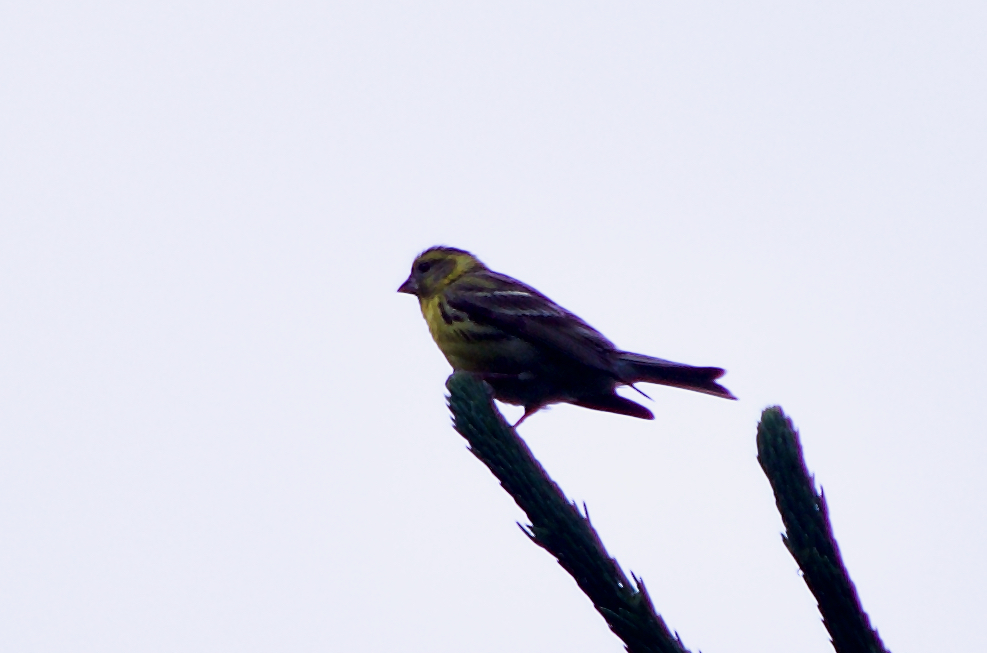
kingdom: Animalia
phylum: Chordata
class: Aves
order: Passeriformes
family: Fringillidae
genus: Serinus
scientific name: Serinus serinus
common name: European serin
